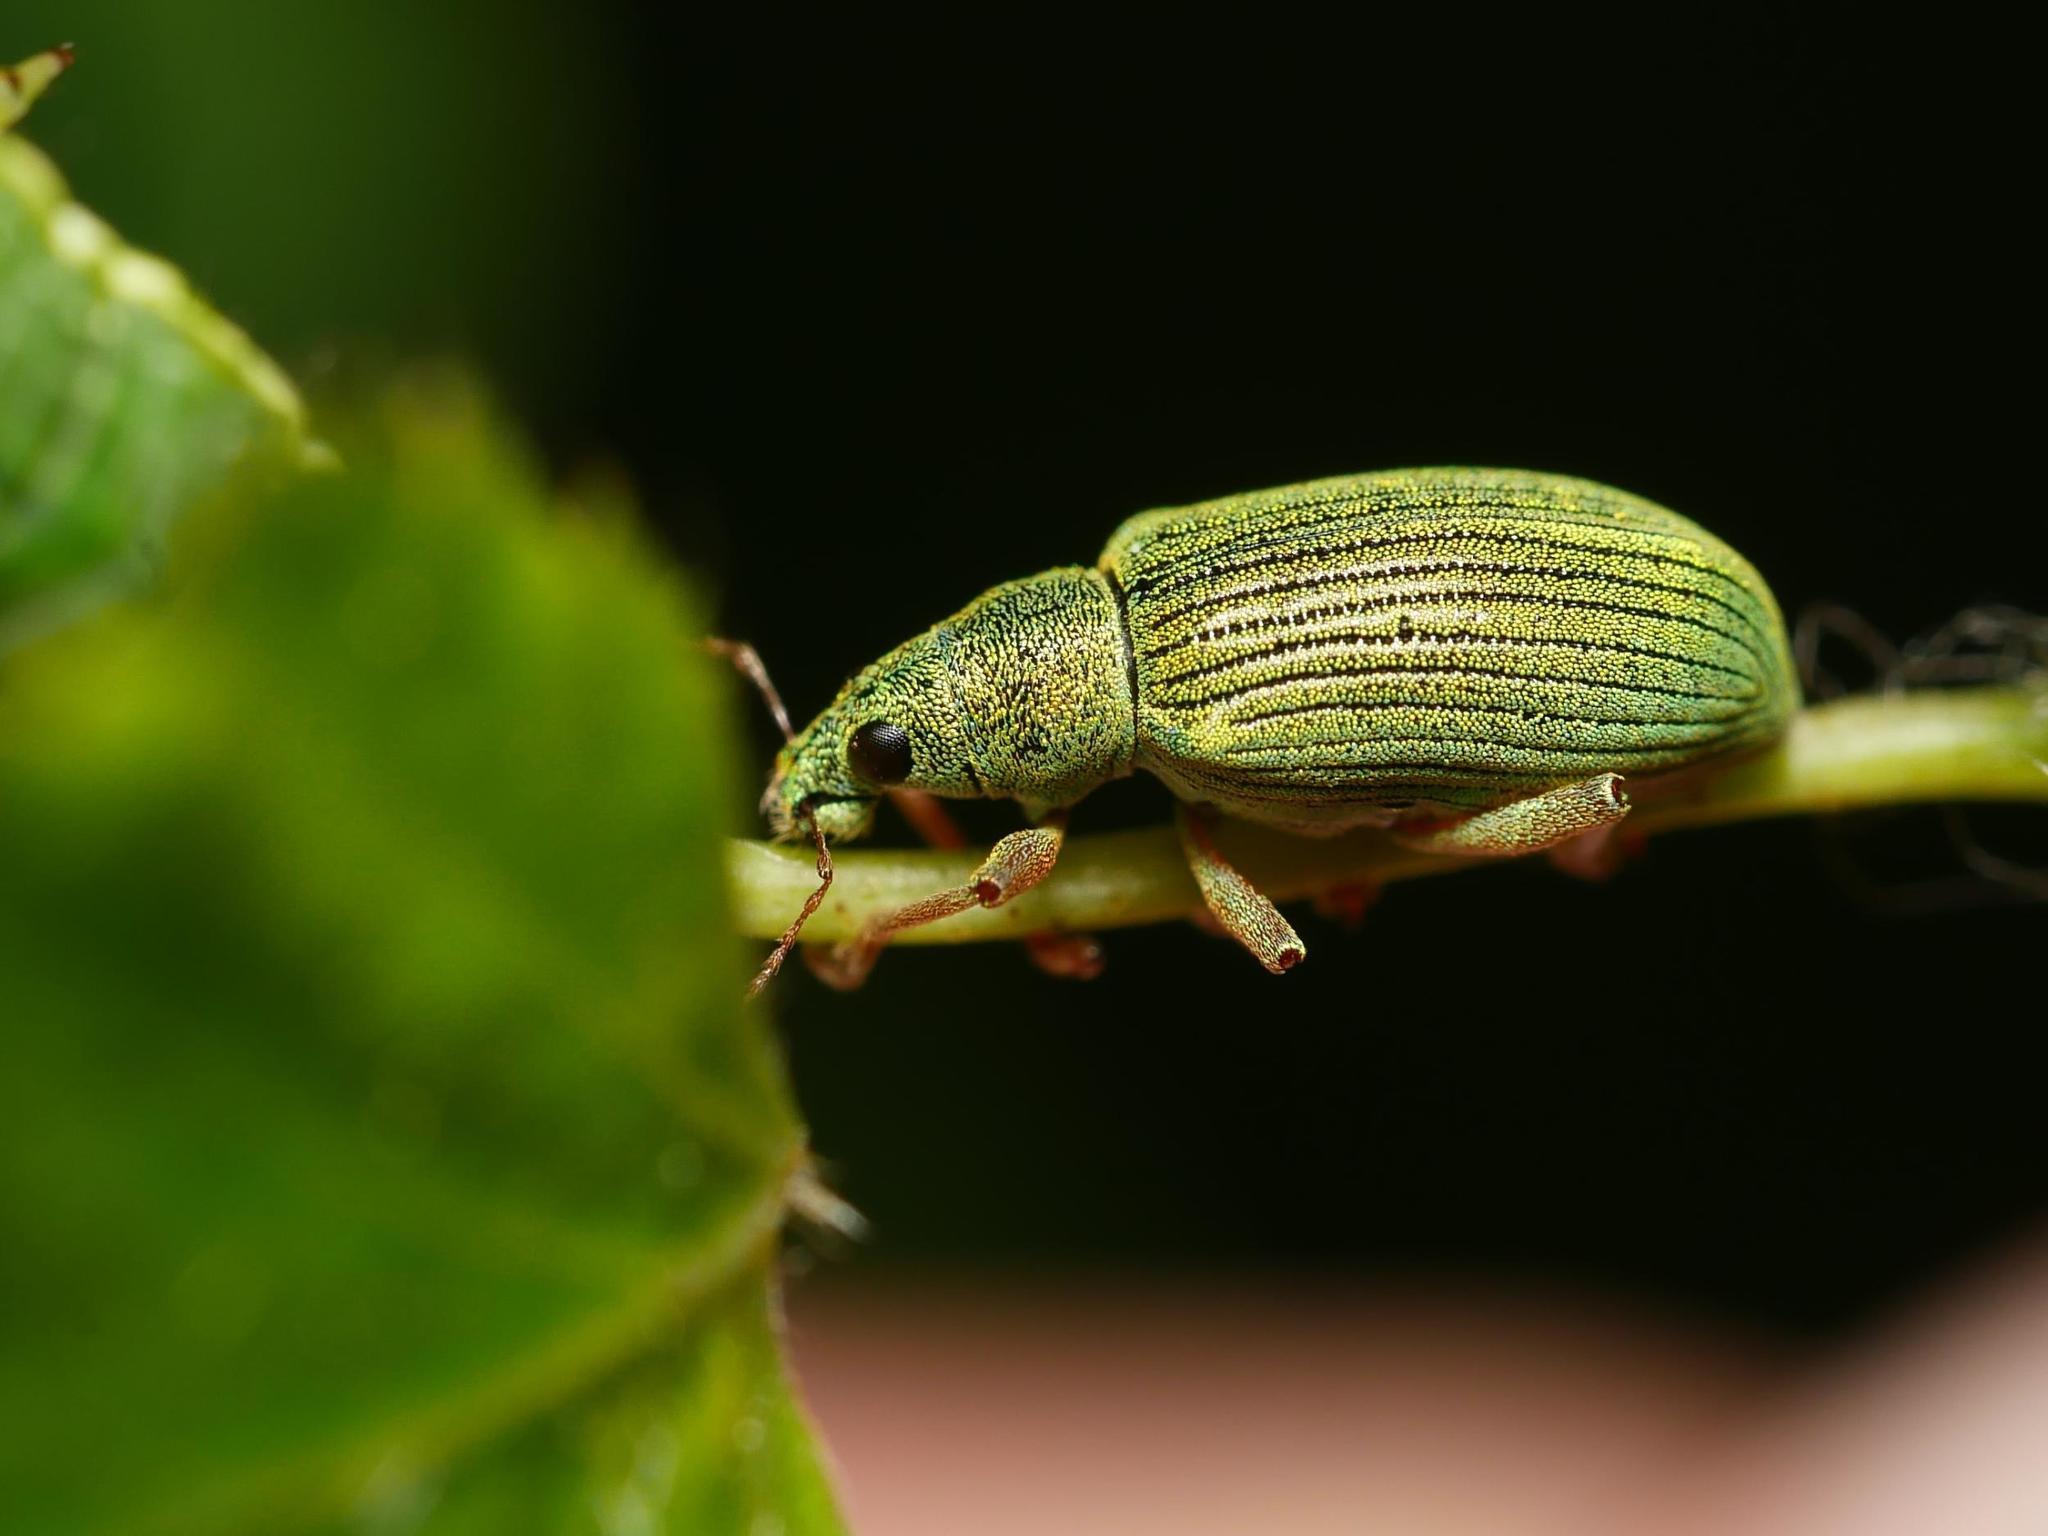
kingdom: Animalia
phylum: Arthropoda
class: Insecta
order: Coleoptera
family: Curculionidae
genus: Polydrusus
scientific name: Polydrusus formosus
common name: Weevil
